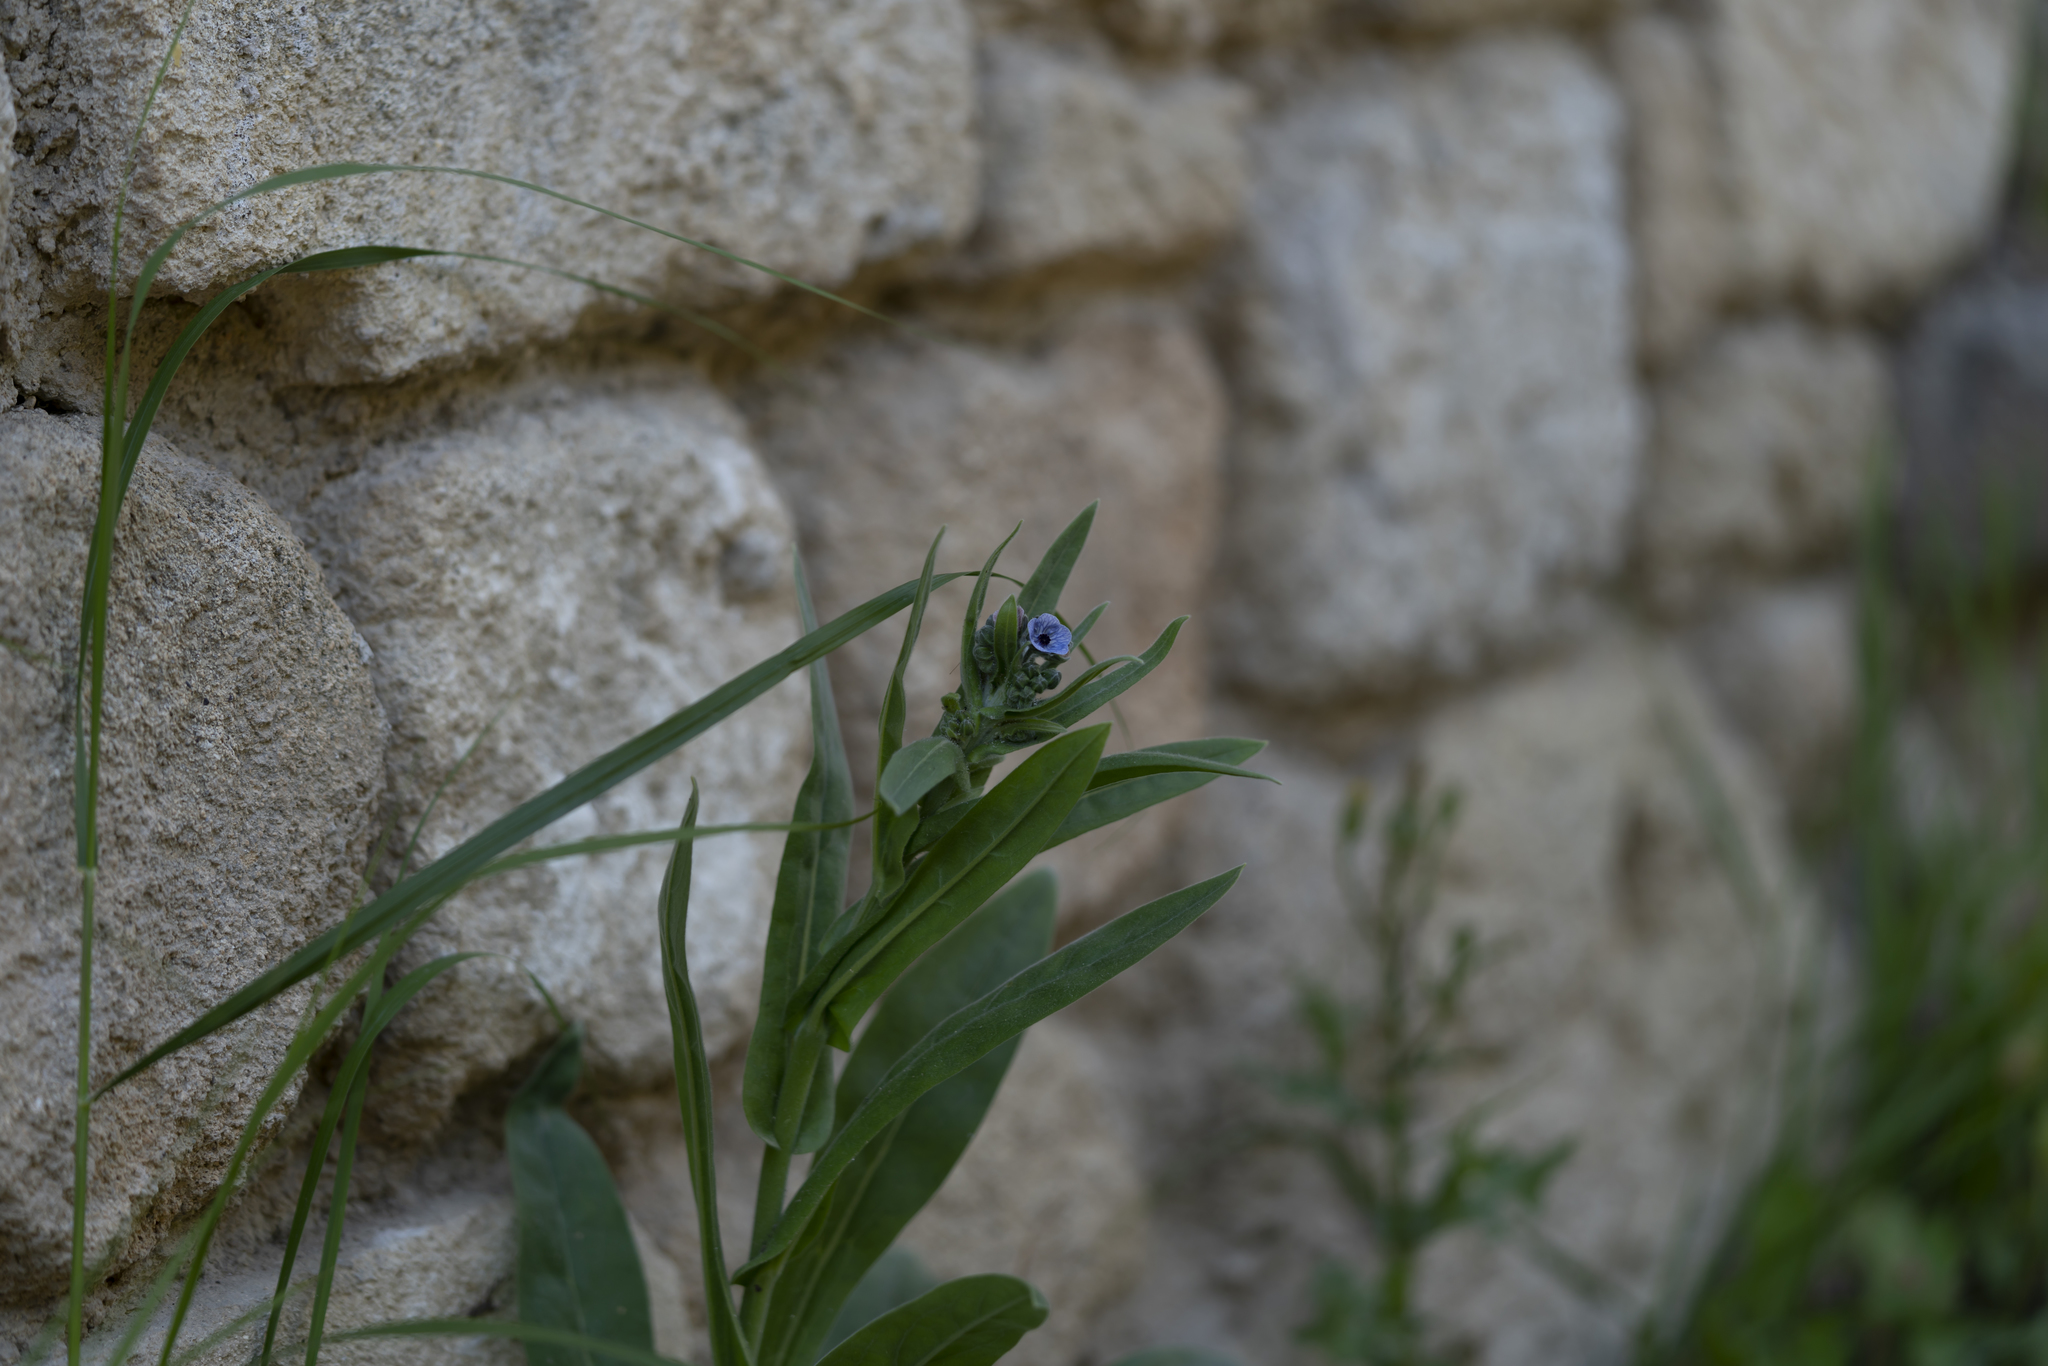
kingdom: Plantae
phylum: Tracheophyta
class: Magnoliopsida
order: Boraginales
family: Boraginaceae
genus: Cynoglossum
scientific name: Cynoglossum creticum
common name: Blue hound's tongue
